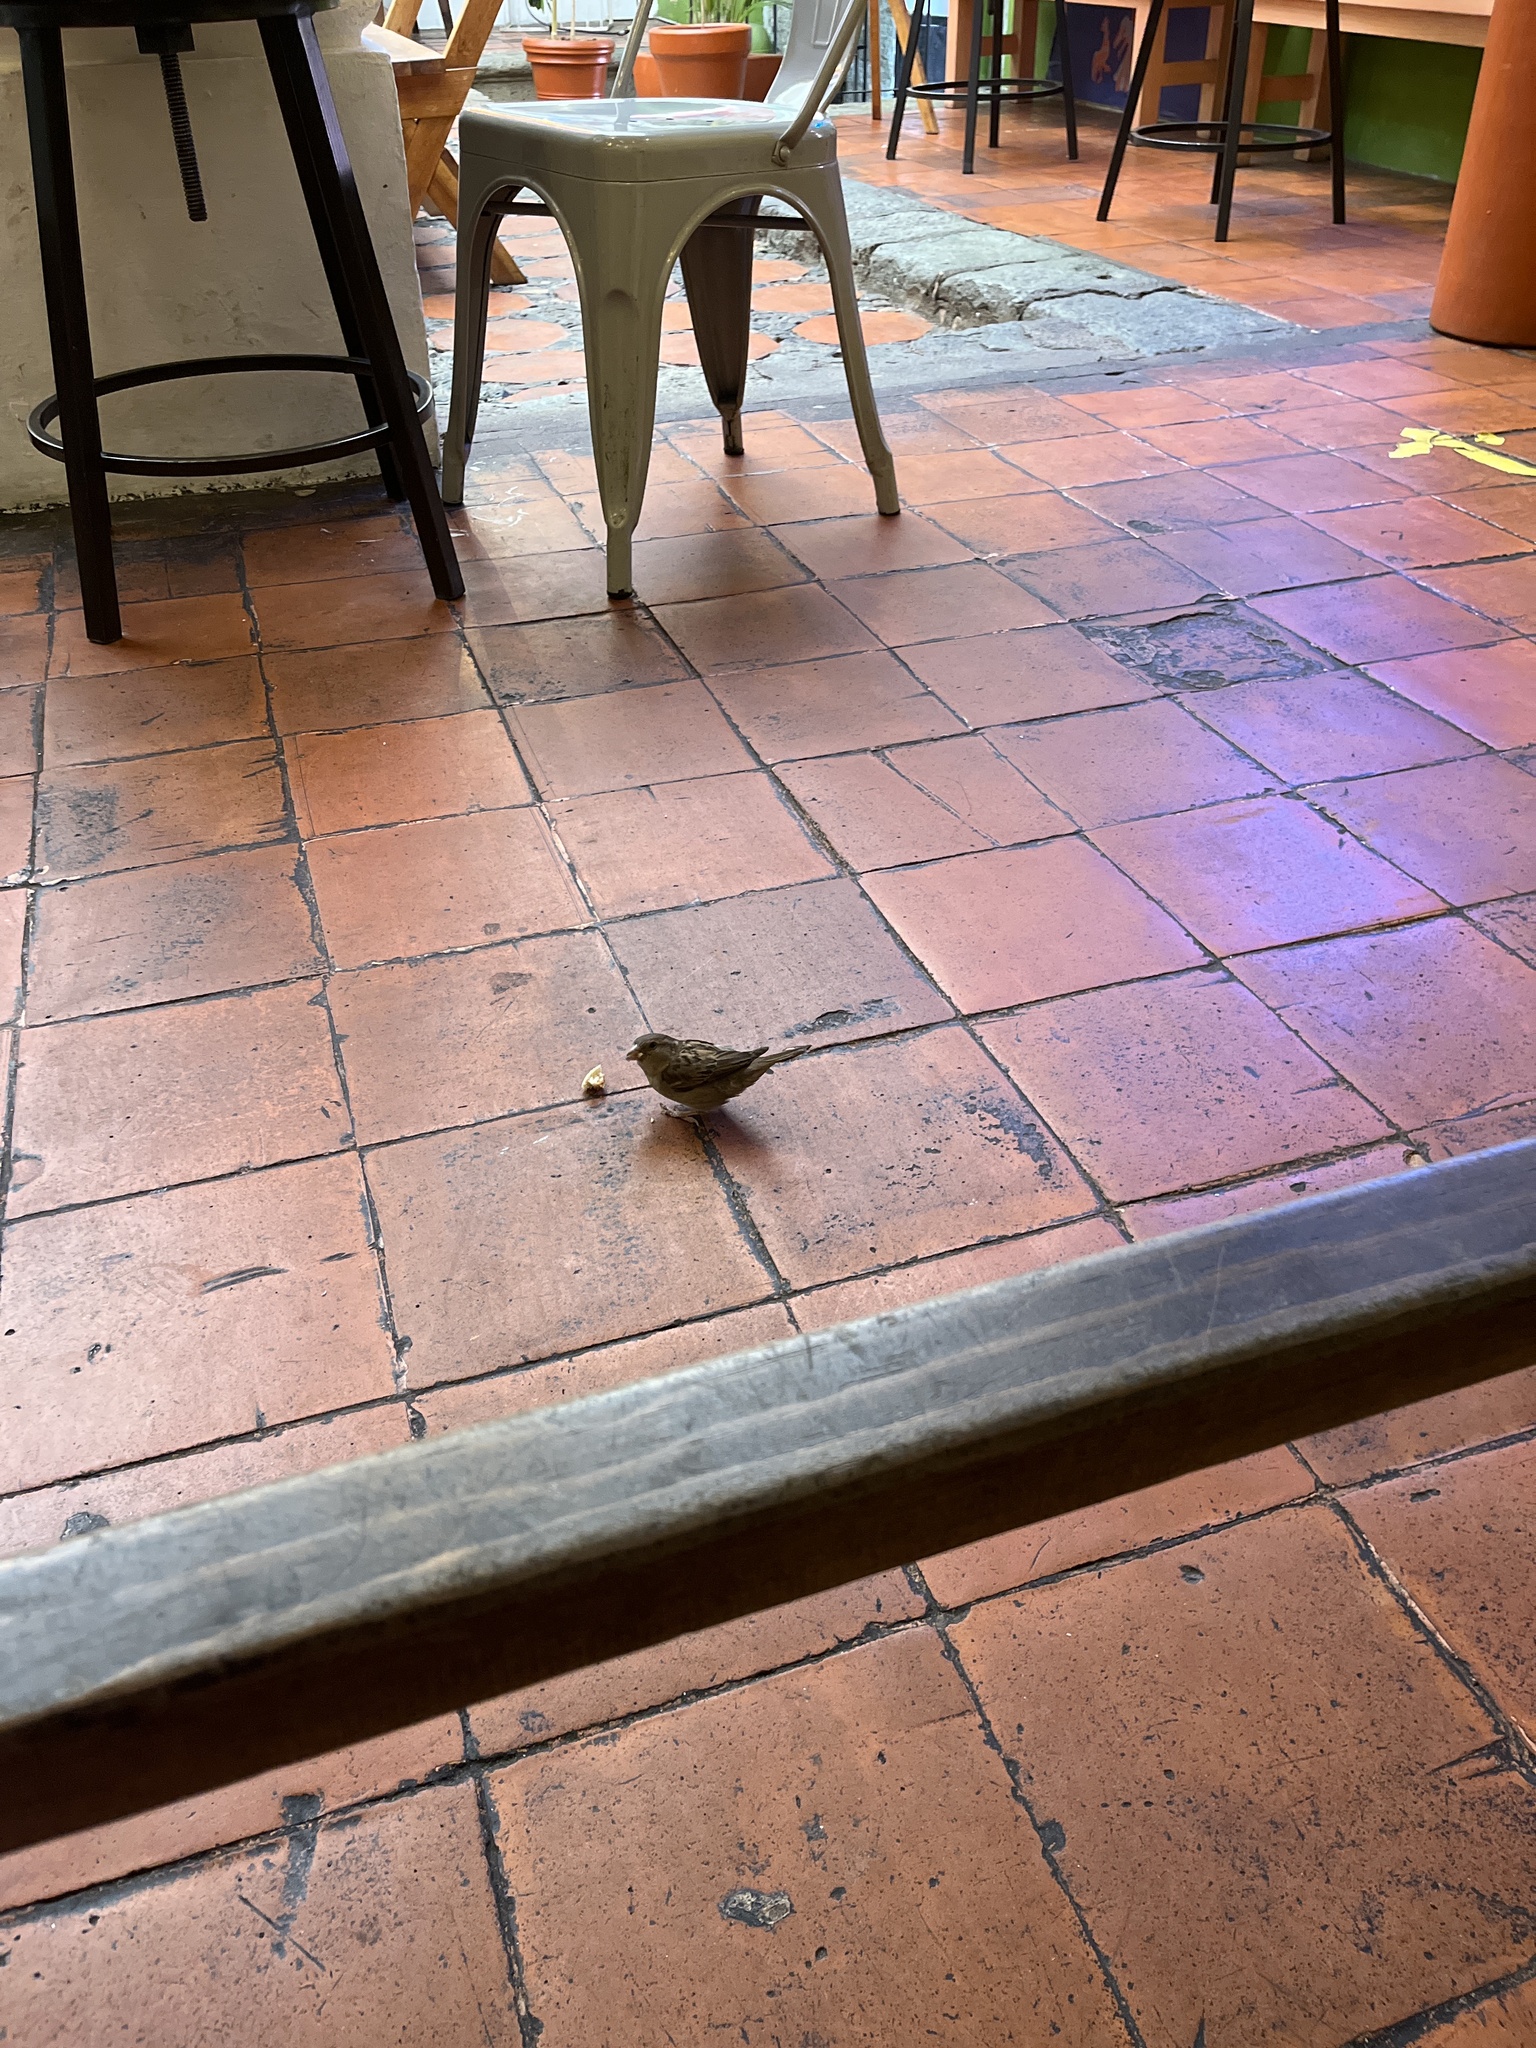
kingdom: Animalia
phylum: Chordata
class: Aves
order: Passeriformes
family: Passeridae
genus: Passer
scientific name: Passer domesticus
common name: House sparrow
